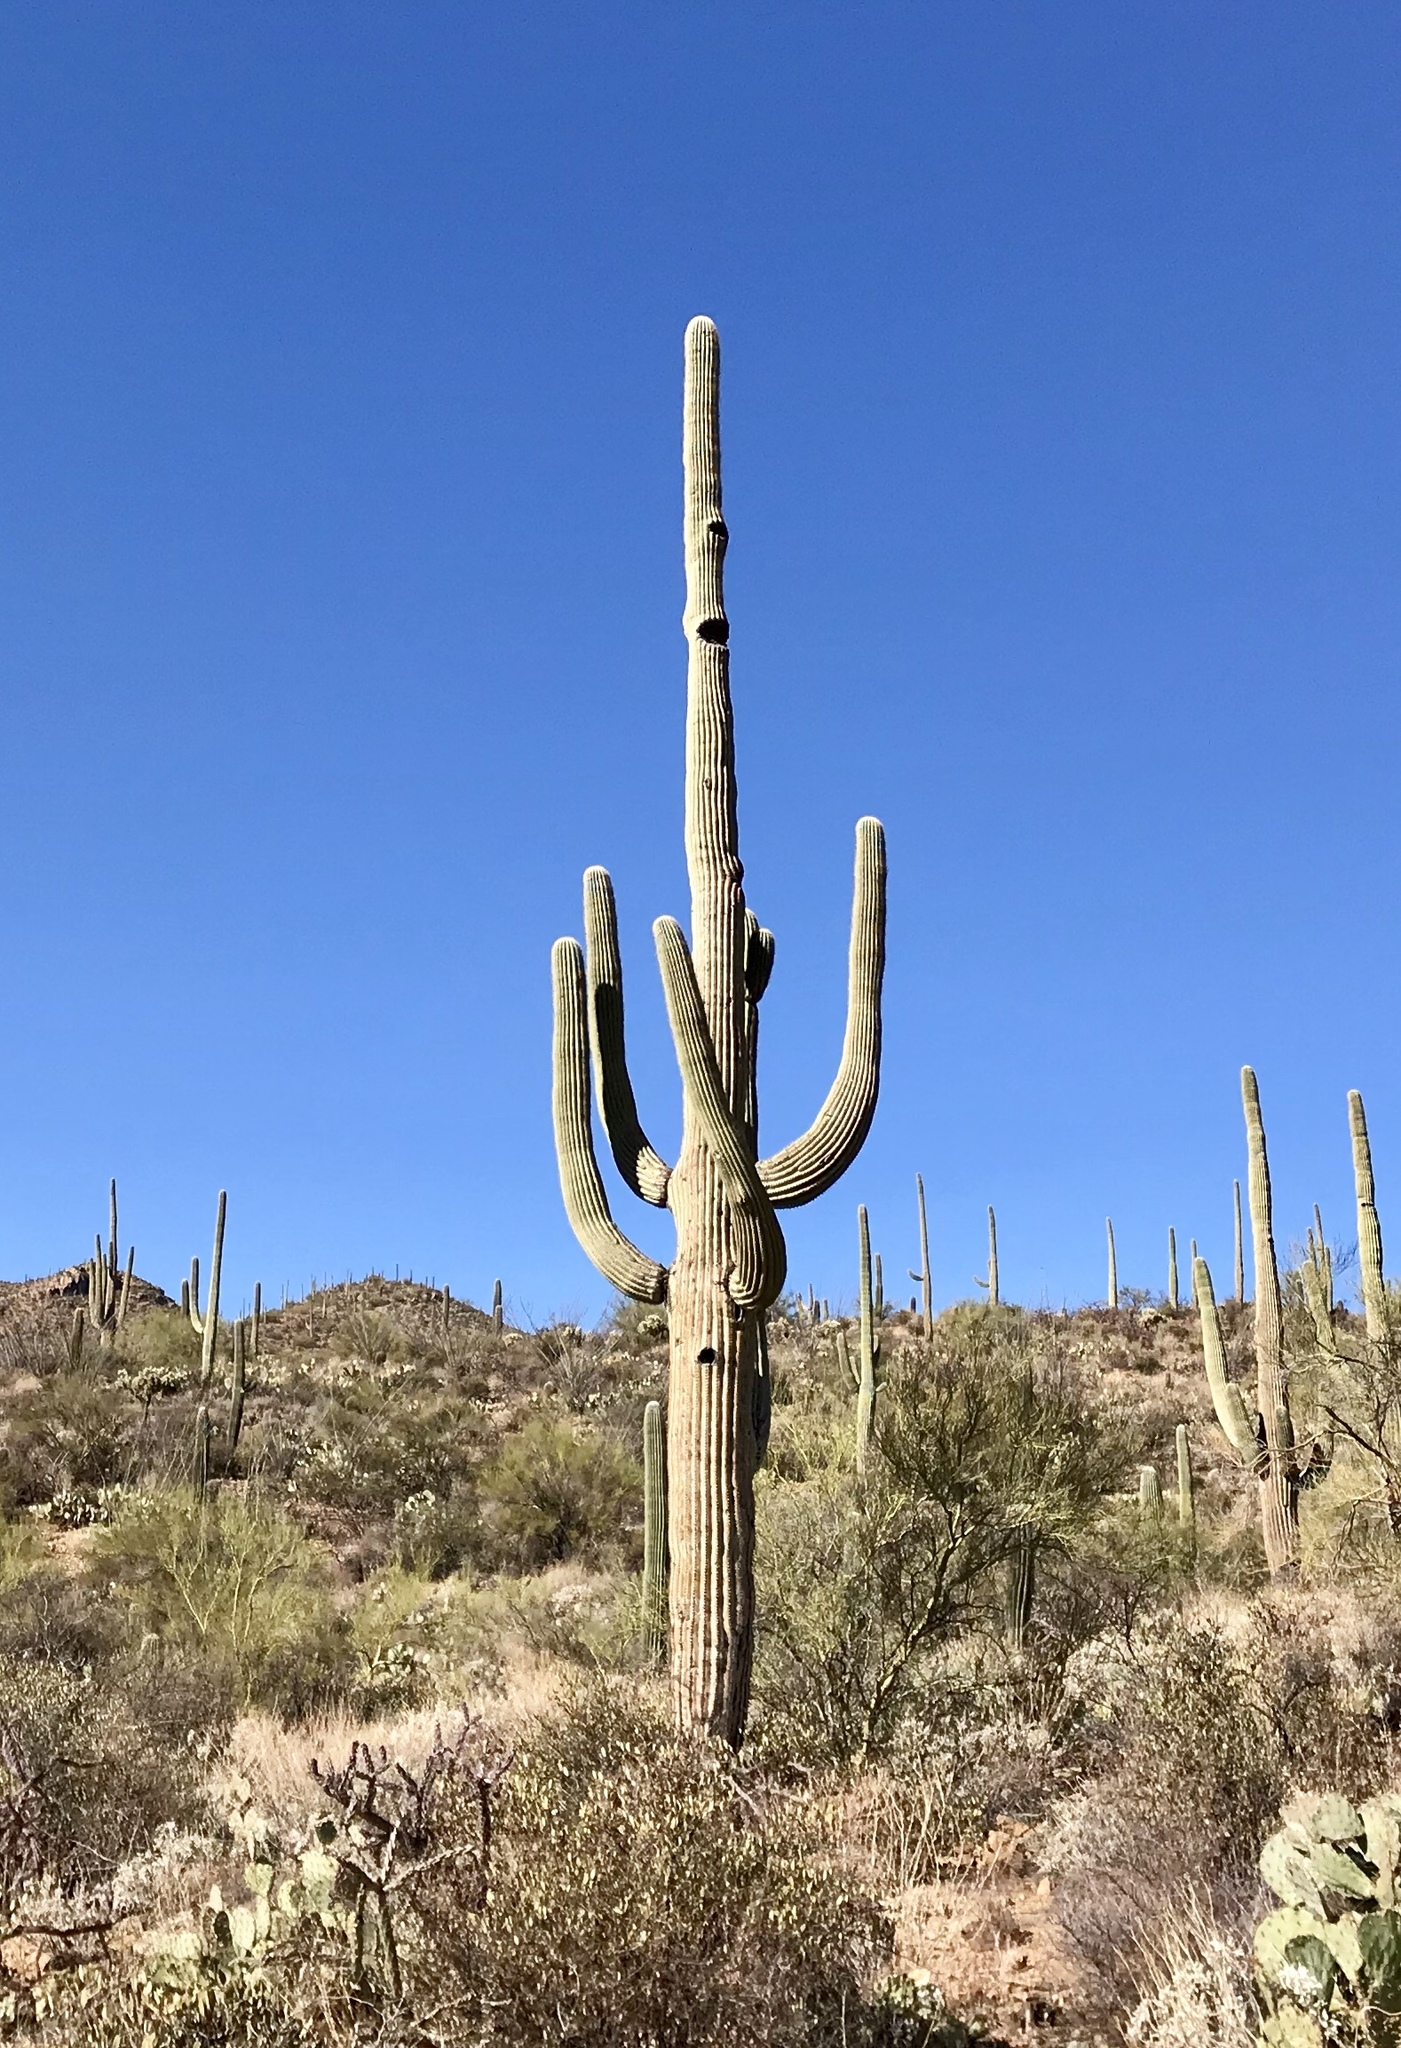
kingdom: Plantae
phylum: Tracheophyta
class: Magnoliopsida
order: Caryophyllales
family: Cactaceae
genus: Carnegiea
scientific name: Carnegiea gigantea
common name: Saguaro
